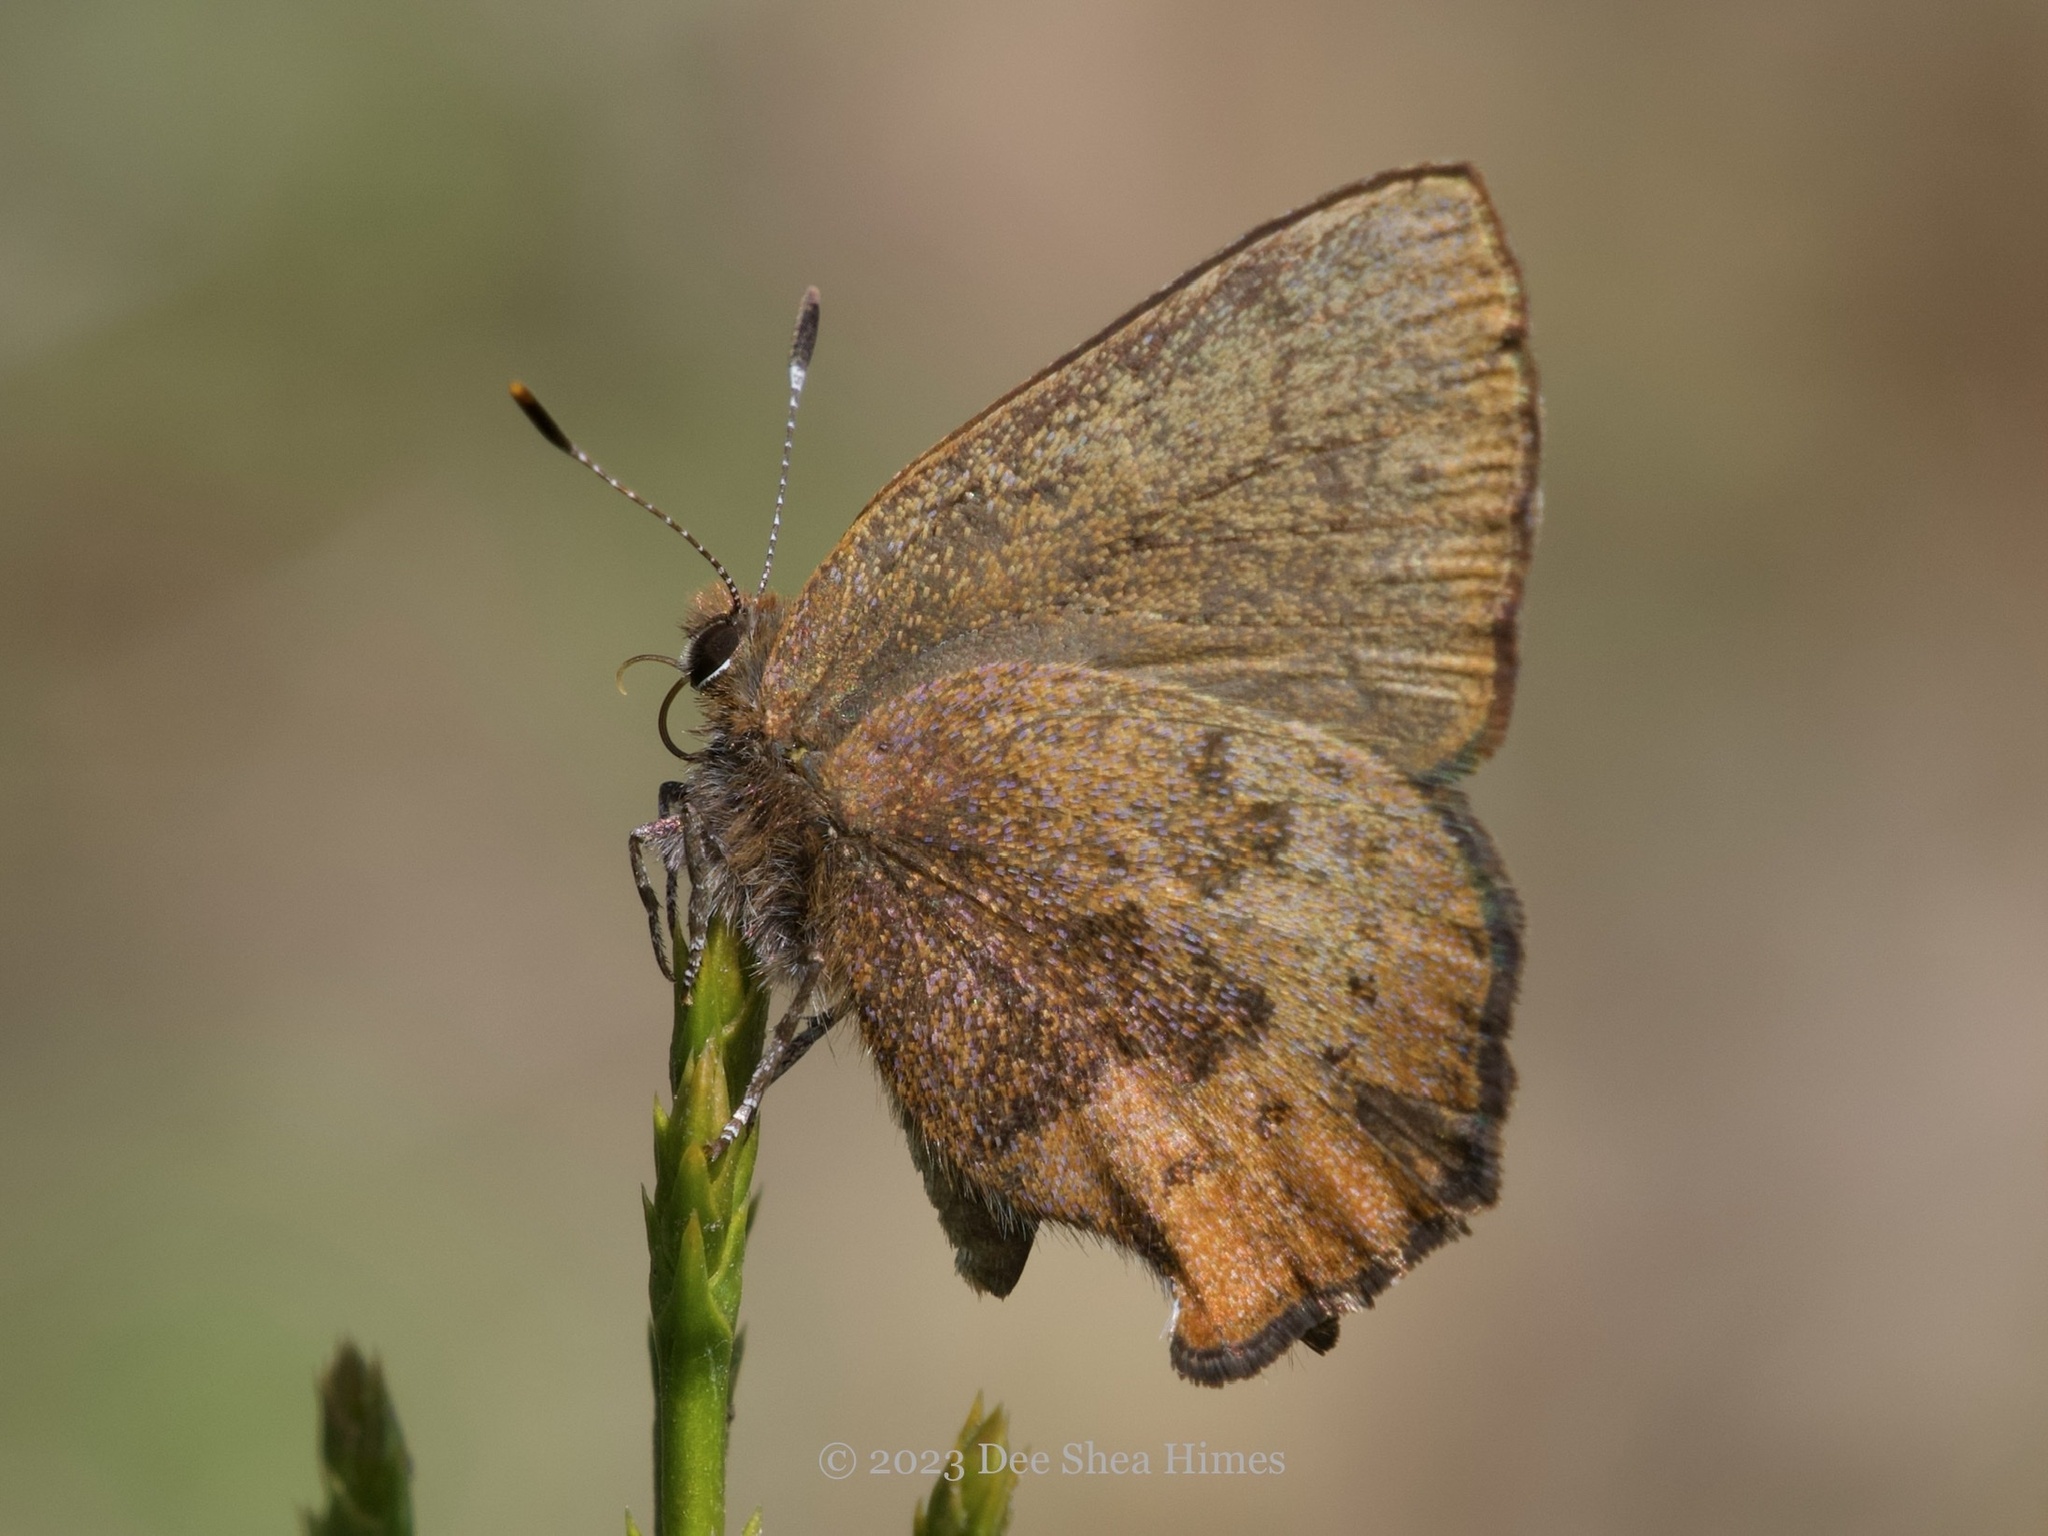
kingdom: Animalia
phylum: Arthropoda
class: Insecta
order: Lepidoptera
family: Lycaenidae
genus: Incisalia
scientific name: Incisalia irioides
